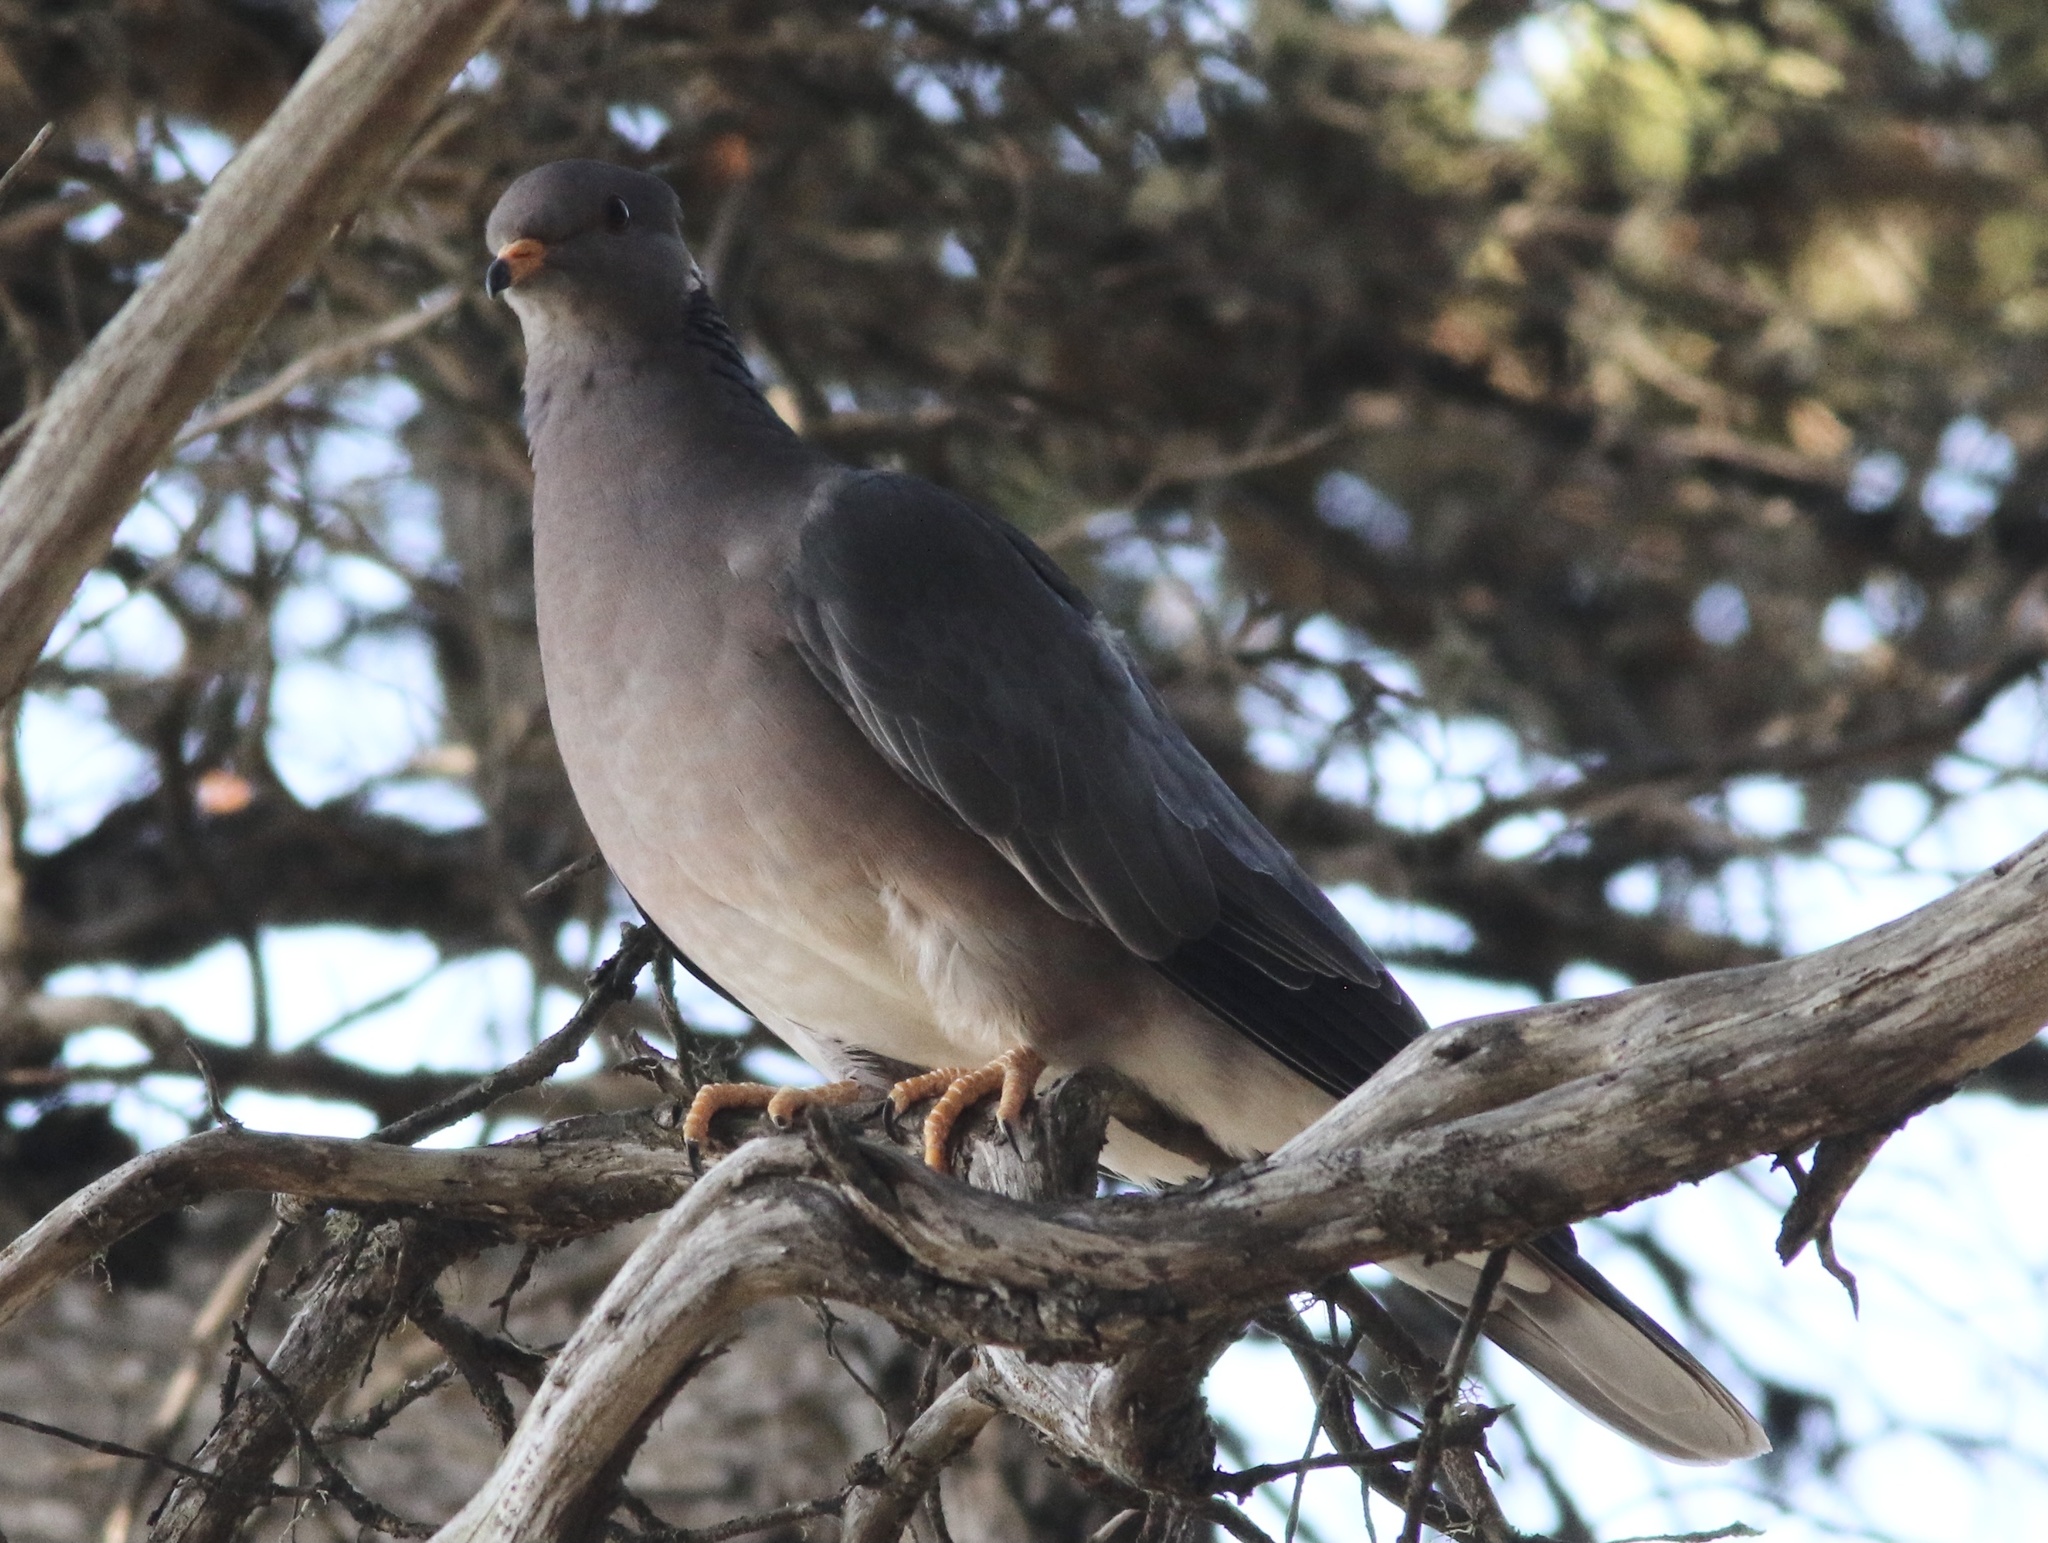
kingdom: Animalia
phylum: Chordata
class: Aves
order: Columbiformes
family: Columbidae
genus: Patagioenas
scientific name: Patagioenas fasciata
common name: Band-tailed pigeon
